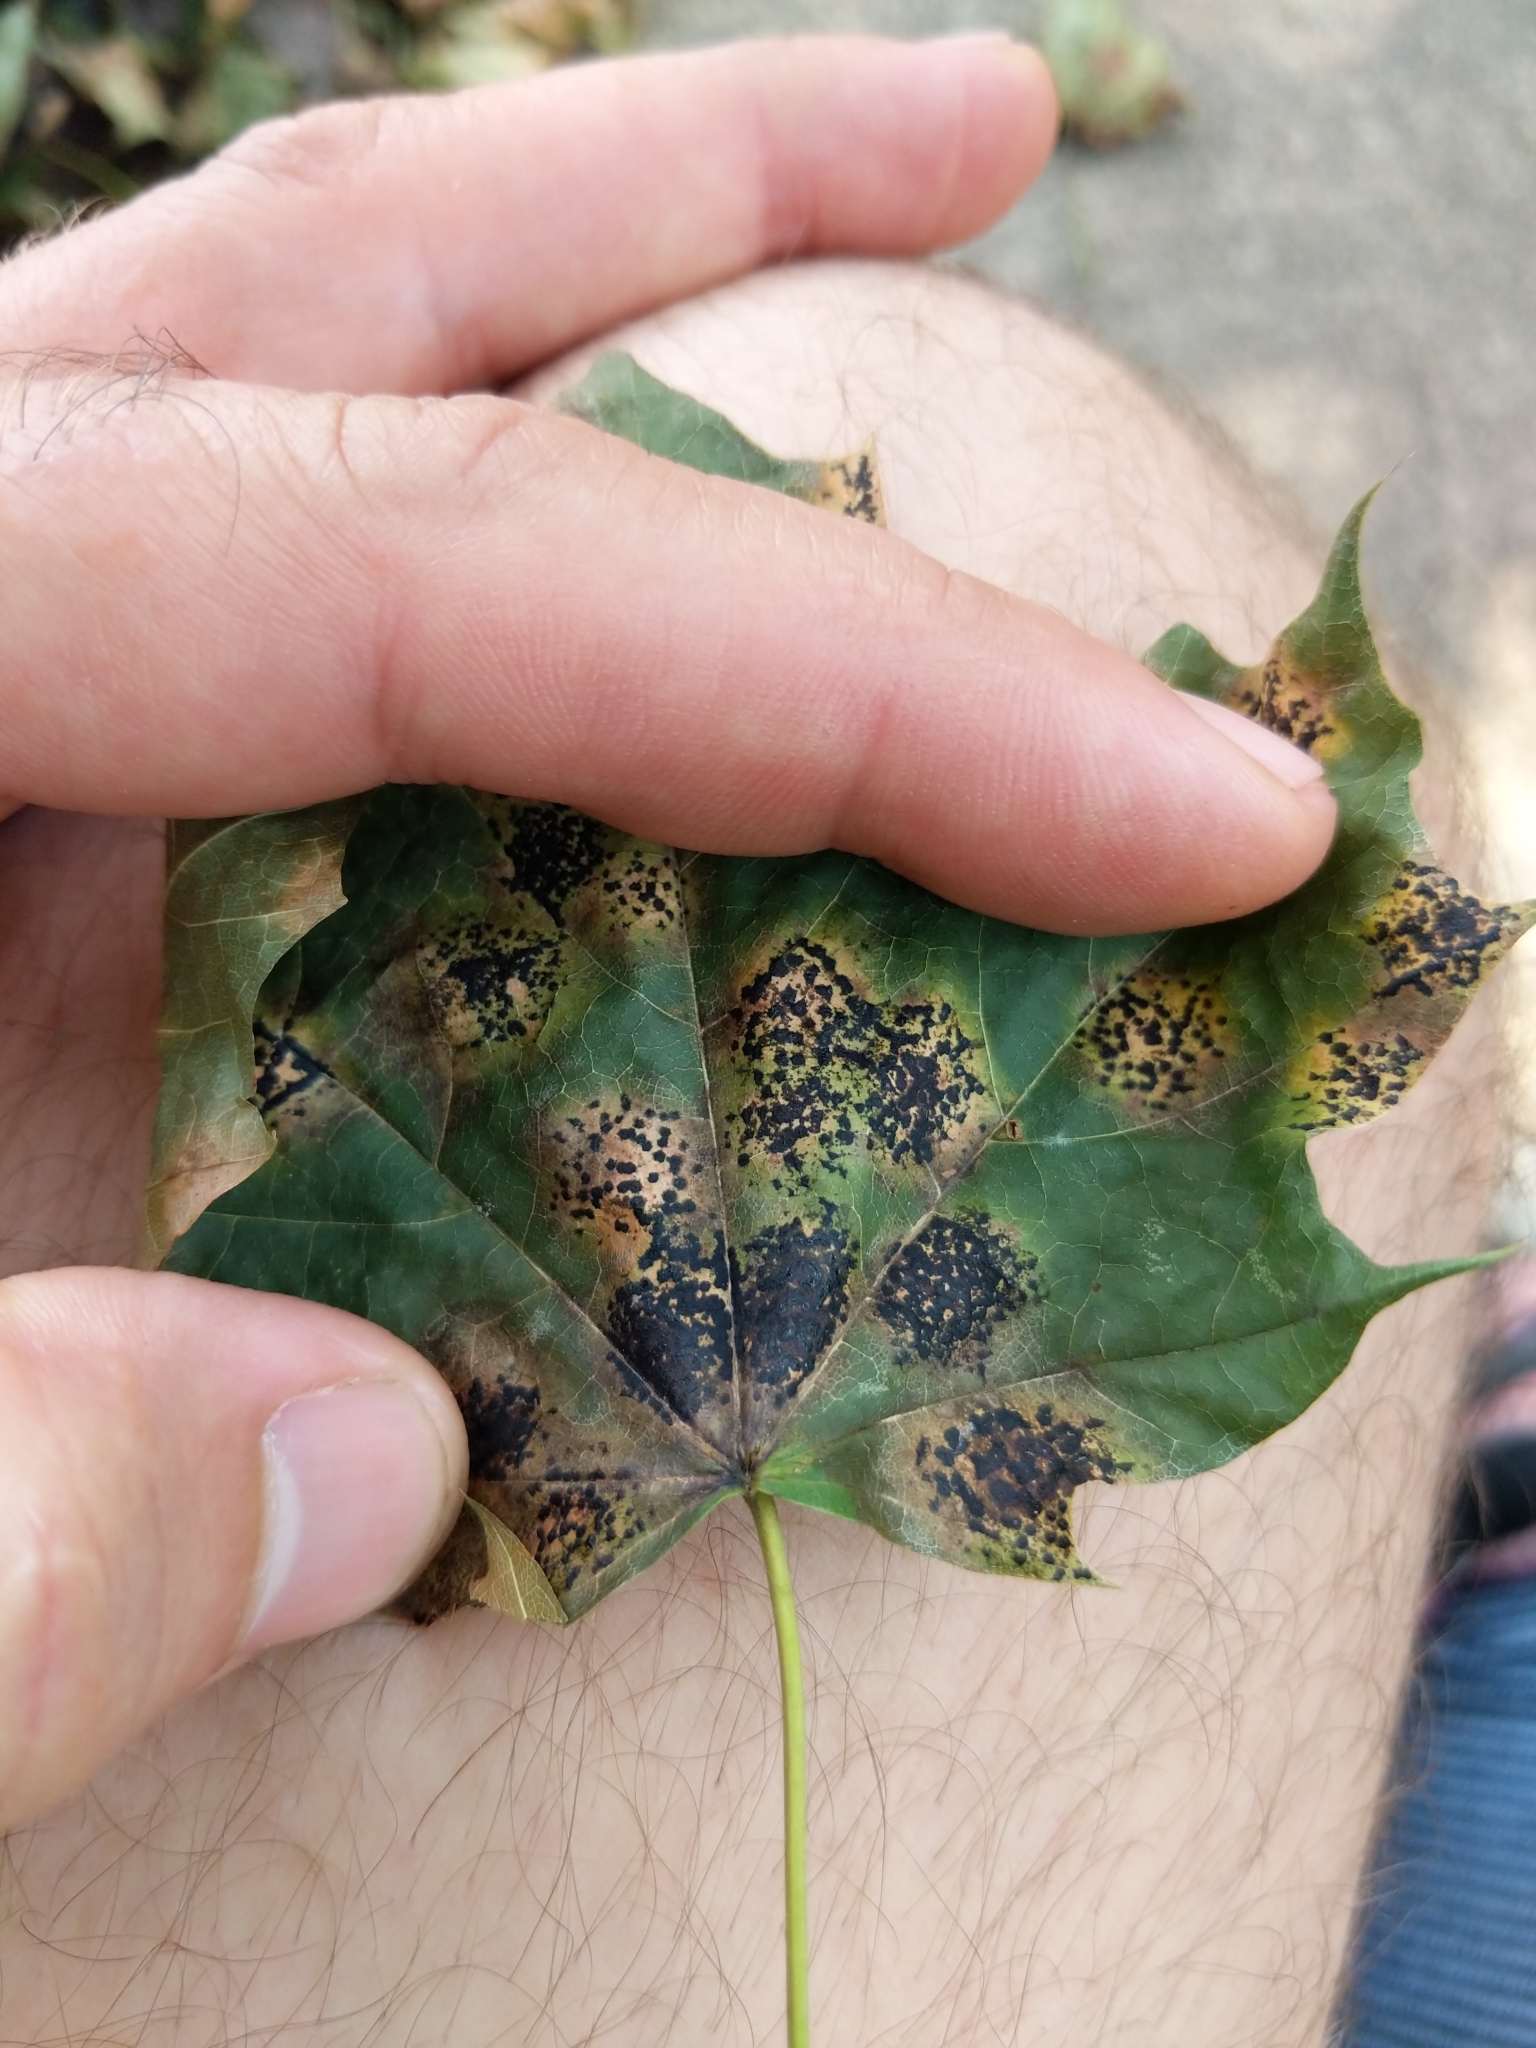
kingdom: Fungi
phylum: Ascomycota
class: Leotiomycetes
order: Rhytismatales
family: Rhytismataceae
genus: Rhytisma
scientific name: Rhytisma acerinum
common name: European tar spot
